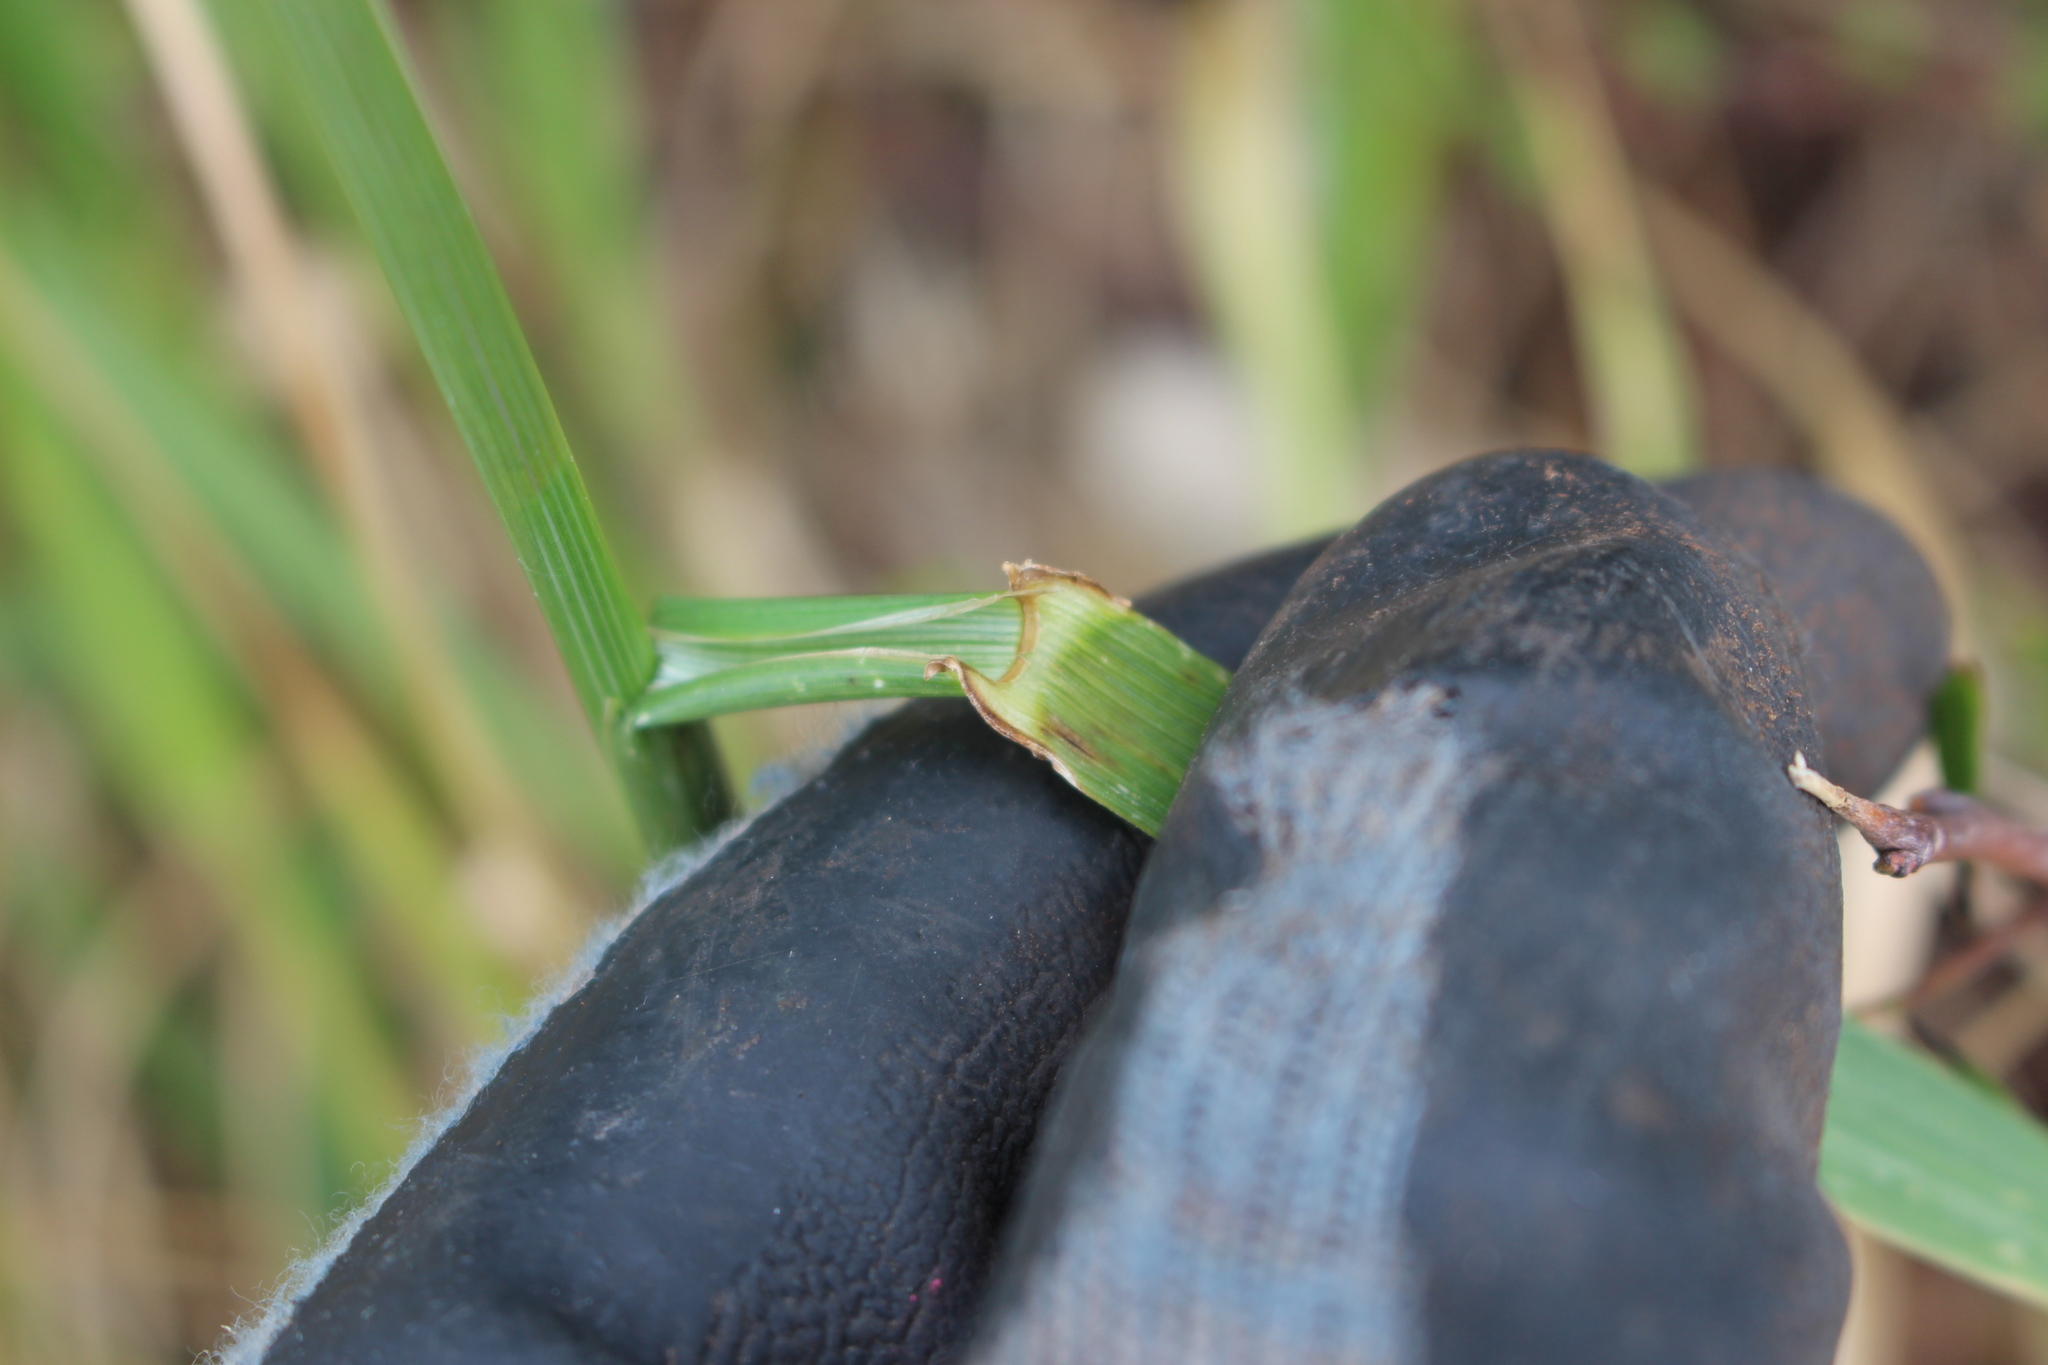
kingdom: Plantae
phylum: Tracheophyta
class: Liliopsida
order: Poales
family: Poaceae
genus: Lolium
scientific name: Lolium arundinaceum
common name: Reed fescue
